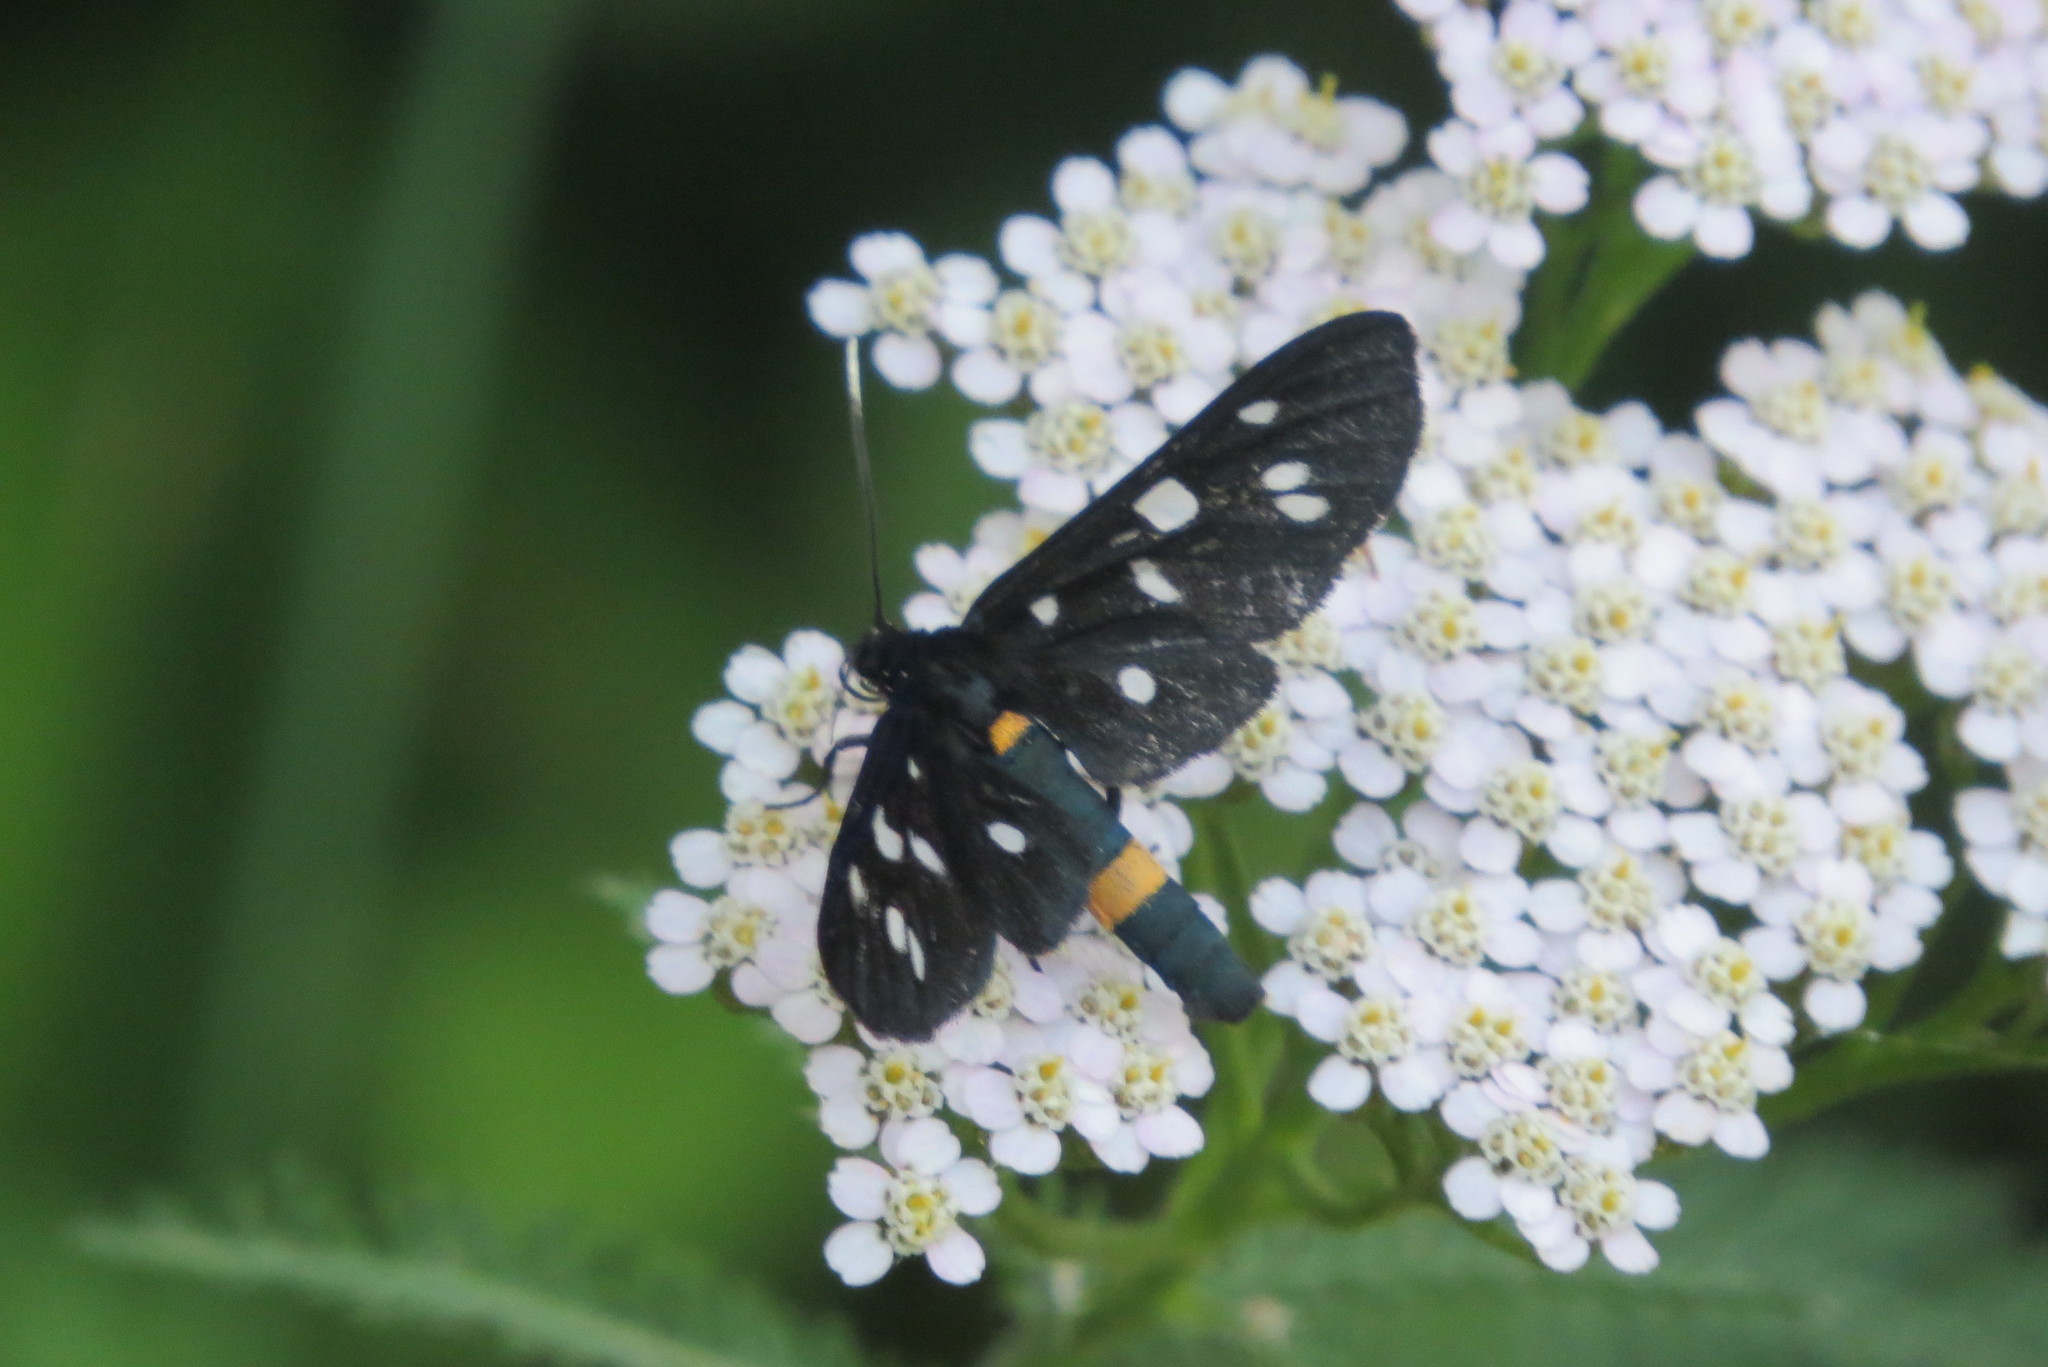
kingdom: Animalia
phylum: Arthropoda
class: Insecta
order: Lepidoptera
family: Erebidae
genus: Amata
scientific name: Amata phegea
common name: Nine-spotted
